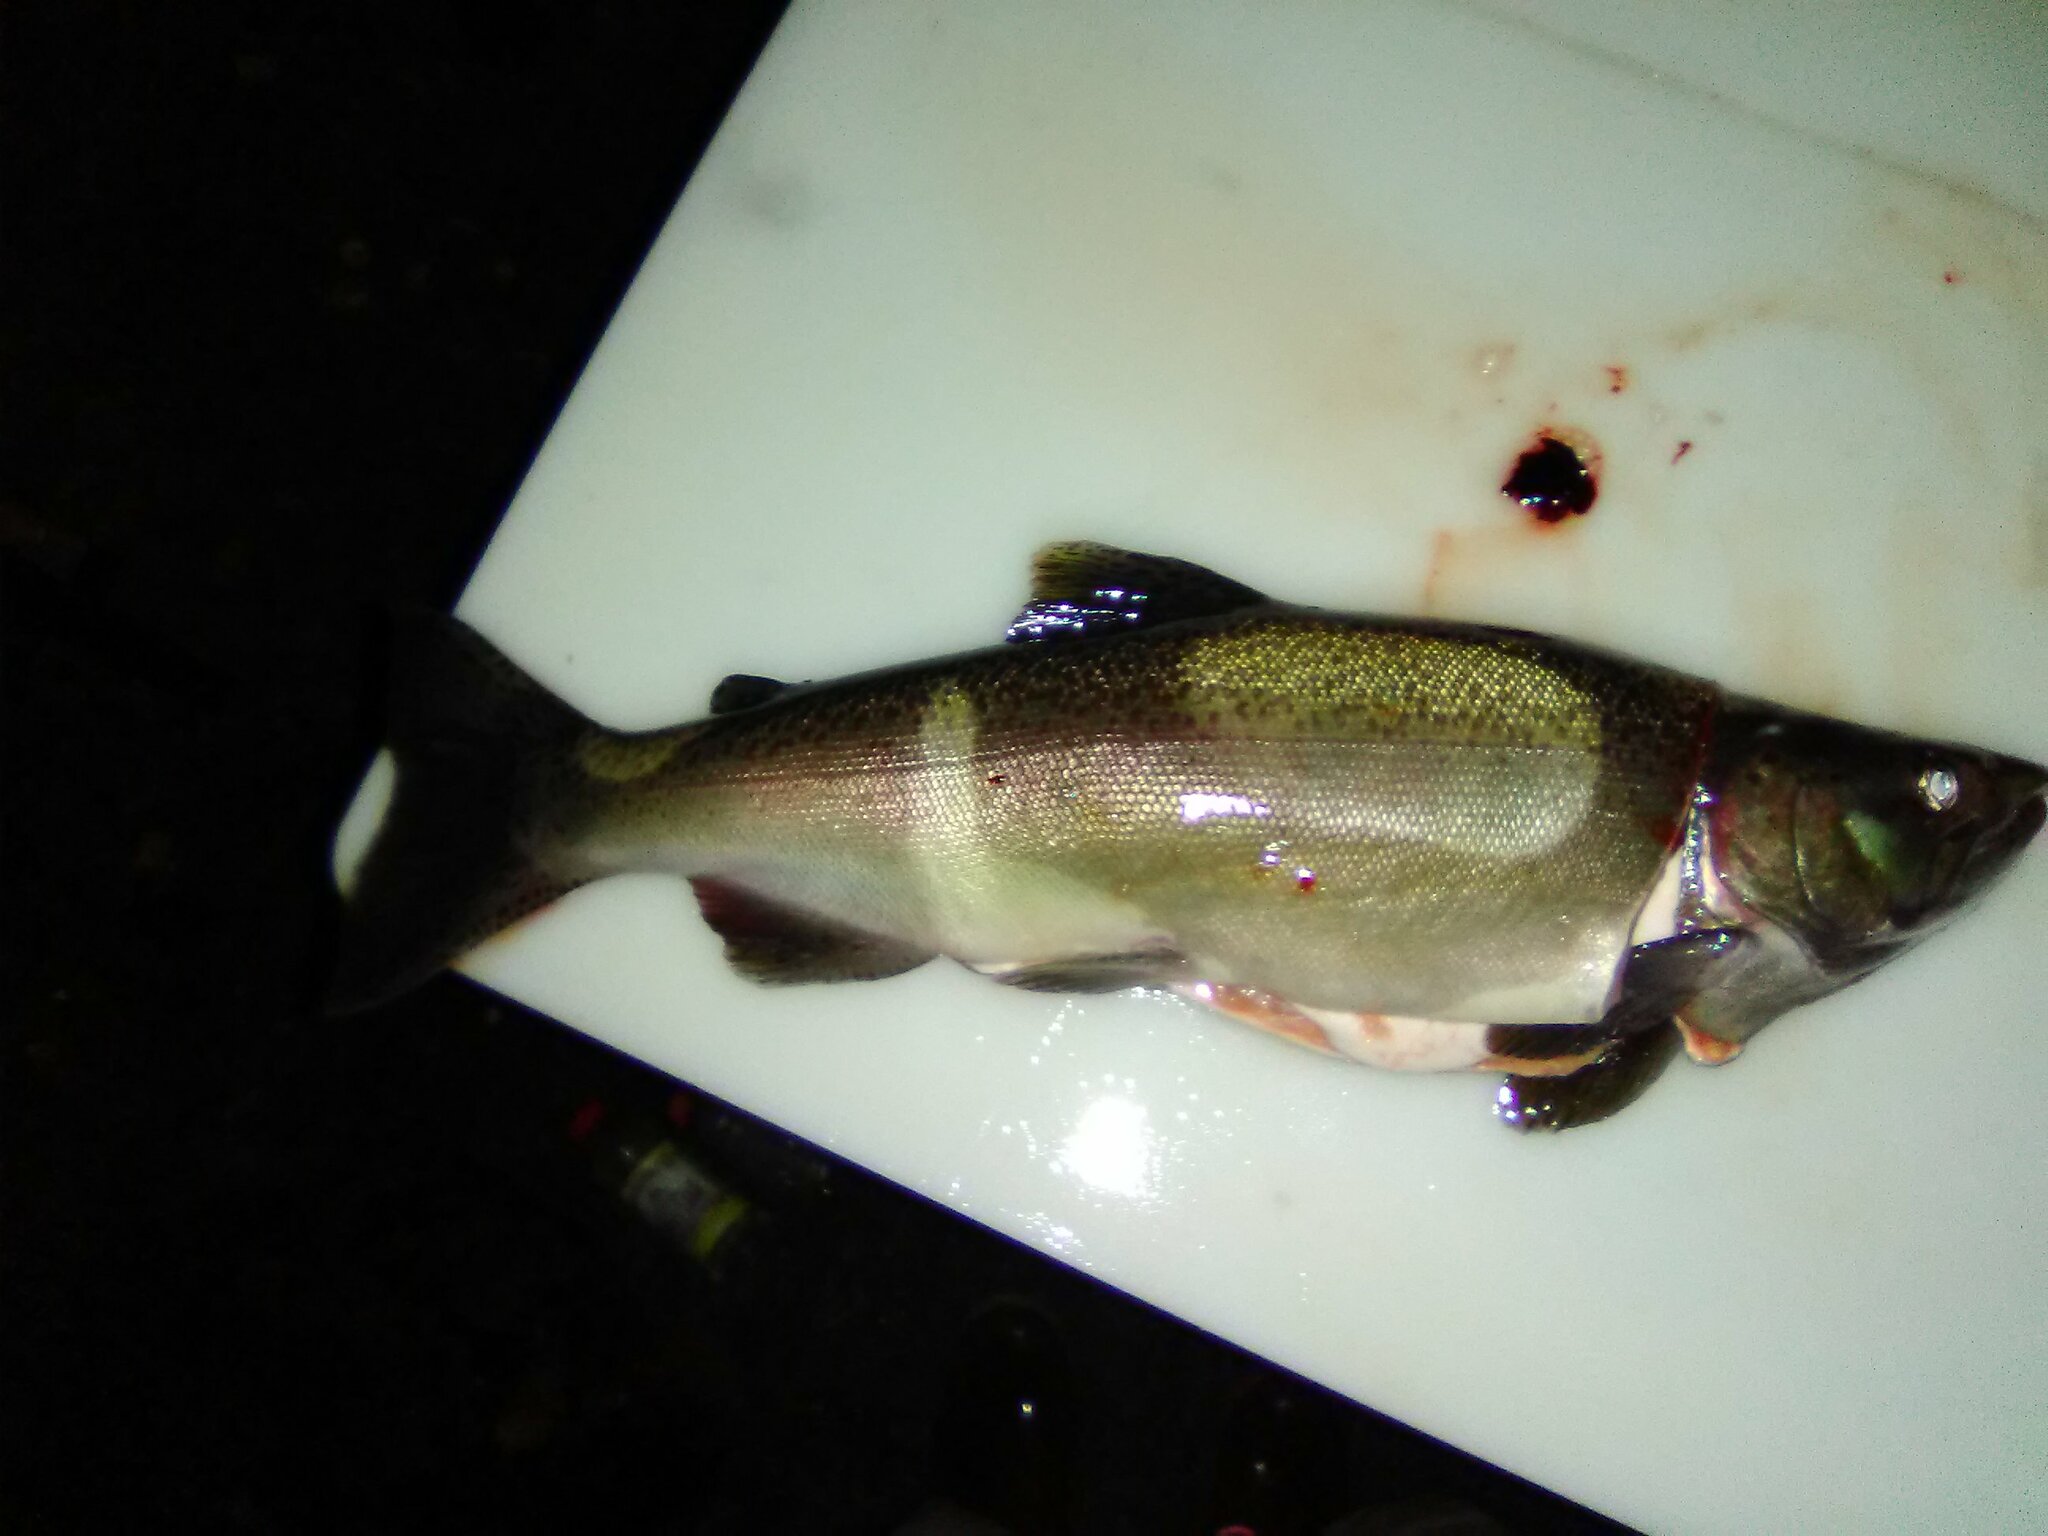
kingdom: Animalia
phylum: Chordata
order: Salmoniformes
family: Salmonidae
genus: Oncorhynchus
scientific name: Oncorhynchus kisutch
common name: Coho salmon
